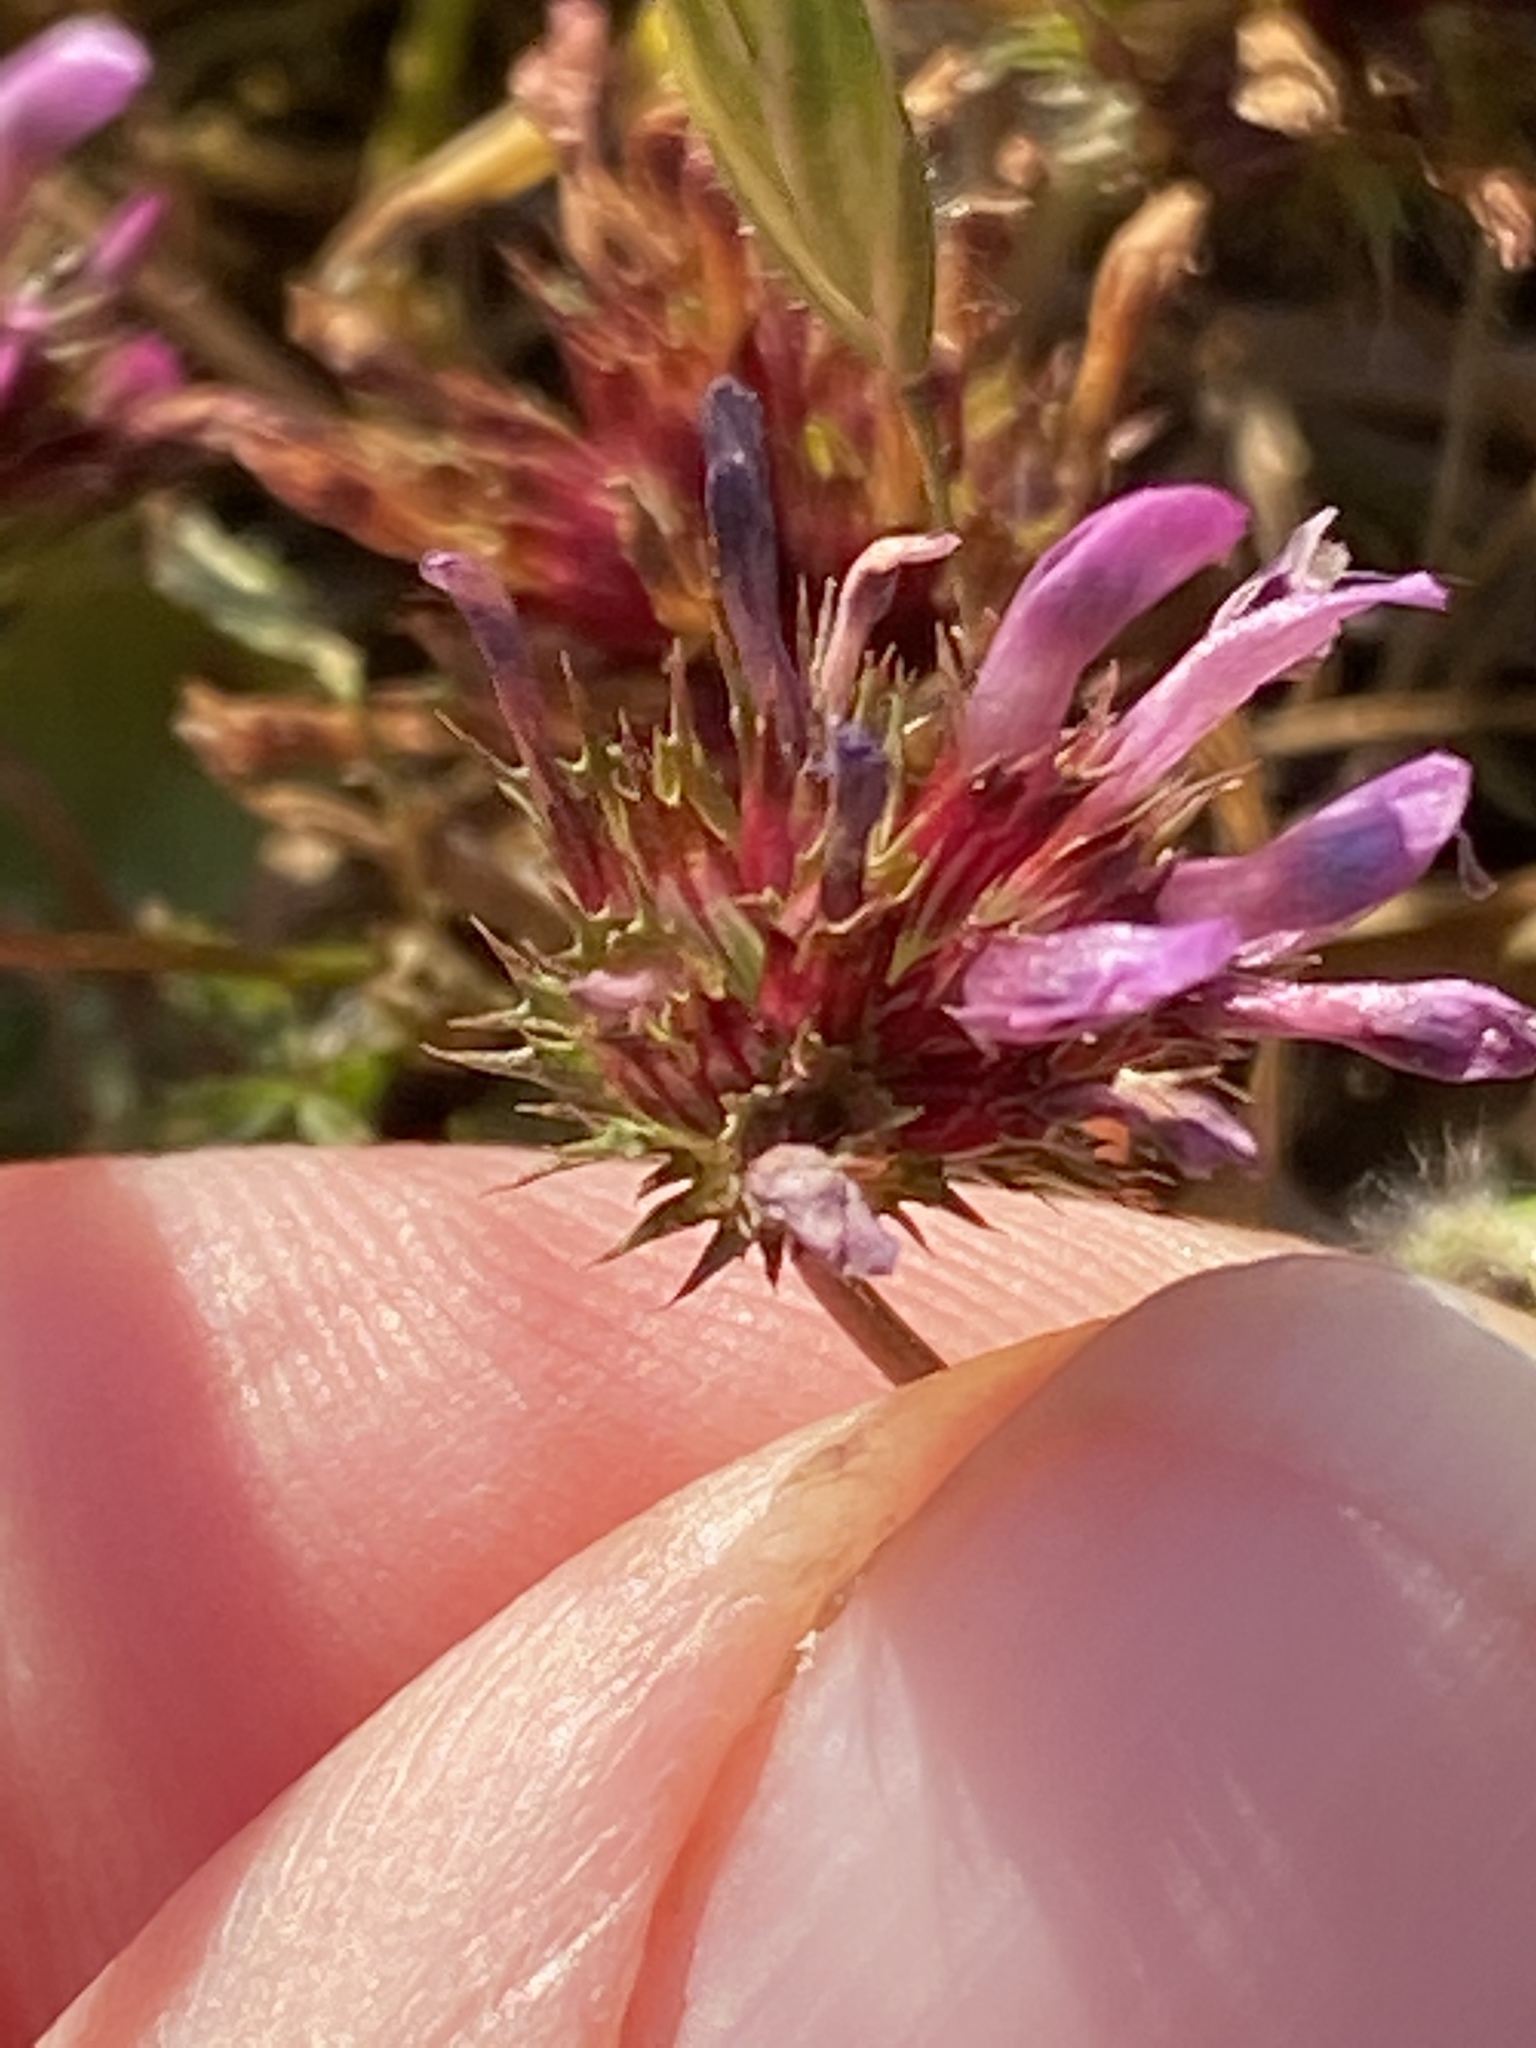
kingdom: Plantae
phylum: Tracheophyta
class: Magnoliopsida
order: Fabales
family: Fabaceae
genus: Trifolium
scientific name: Trifolium willdenovii
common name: Tomcat clover
